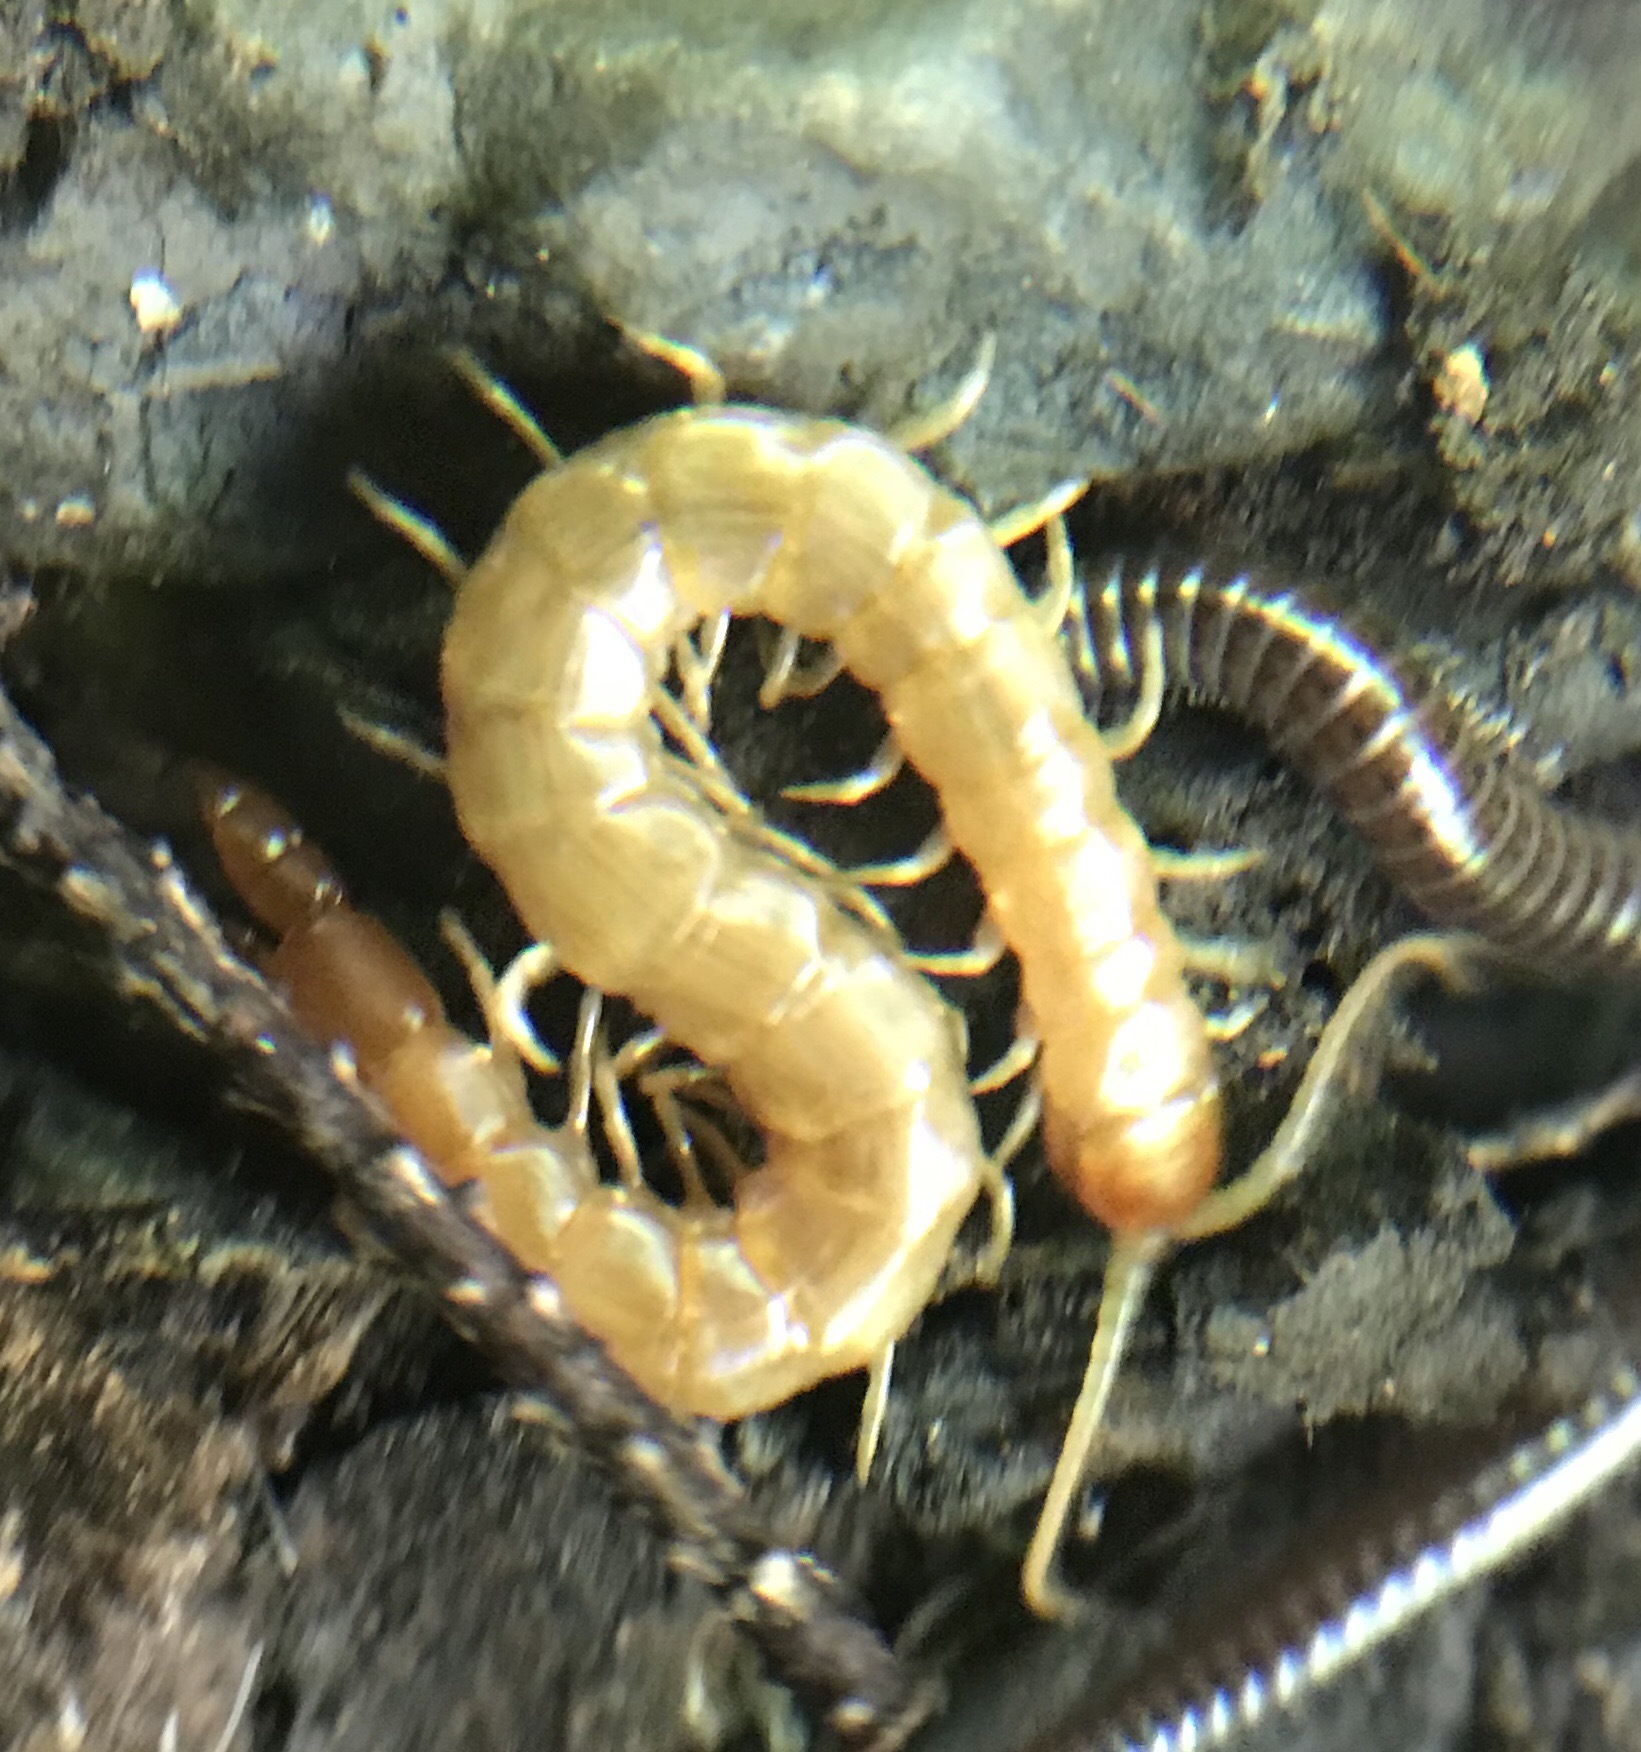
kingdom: Animalia
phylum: Arthropoda
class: Chilopoda
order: Scolopendromorpha
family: Cryptopidae
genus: Theatops
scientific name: Theatops posticus
